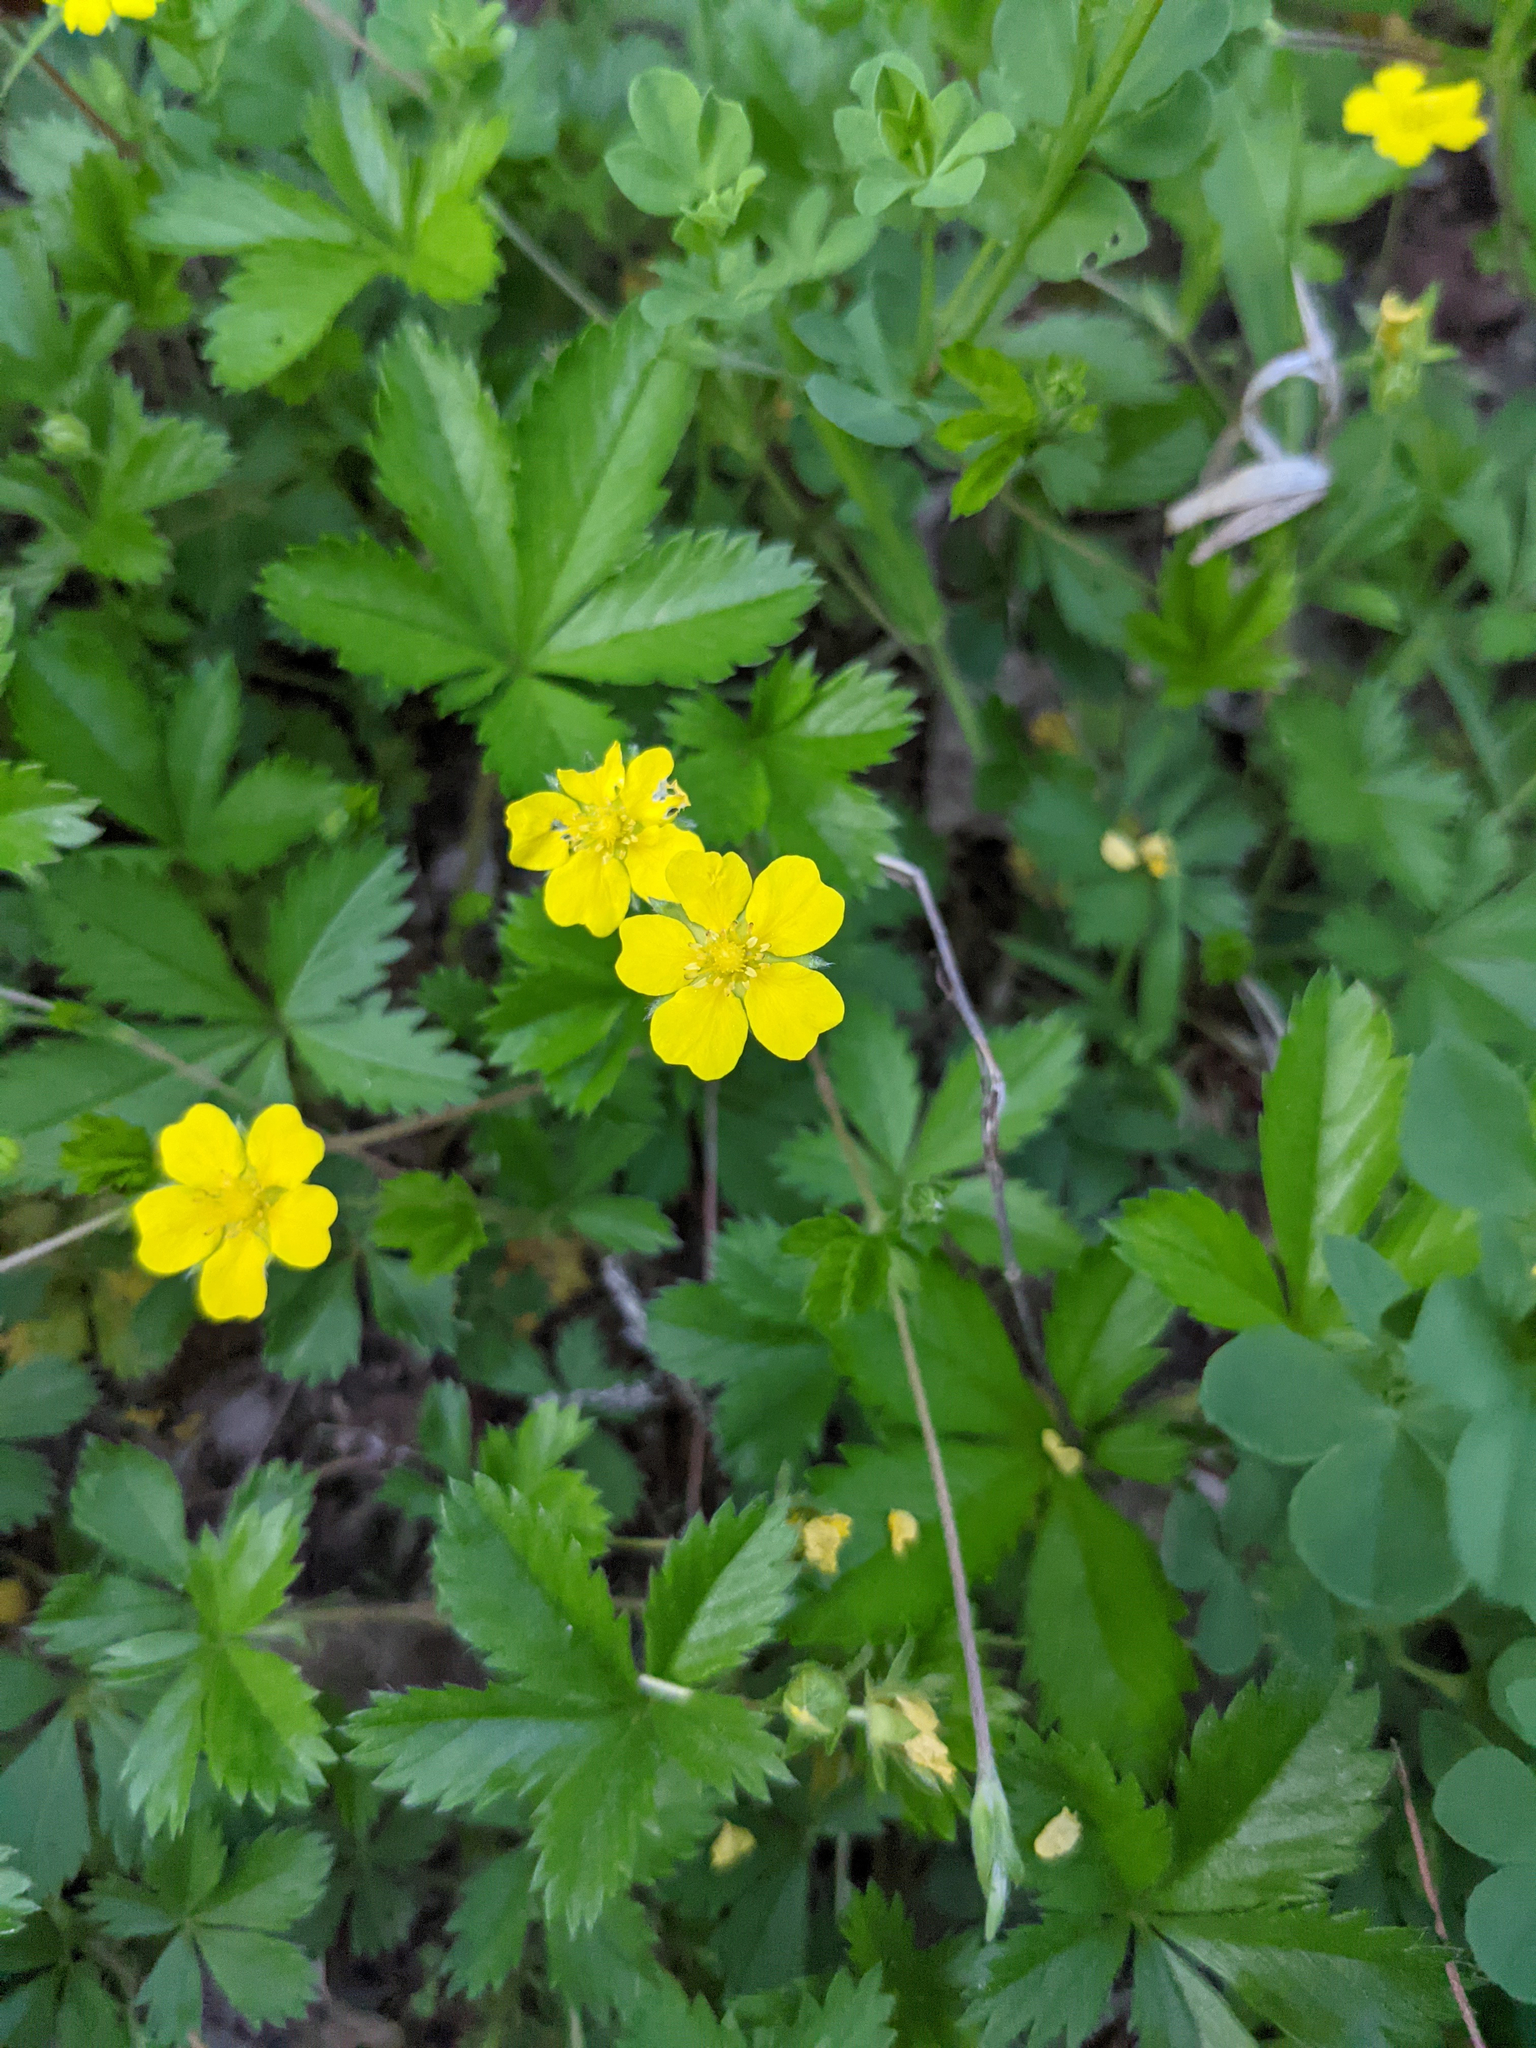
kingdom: Plantae
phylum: Tracheophyta
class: Magnoliopsida
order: Rosales
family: Rosaceae
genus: Potentilla
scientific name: Potentilla simplex
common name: Old field cinquefoil
